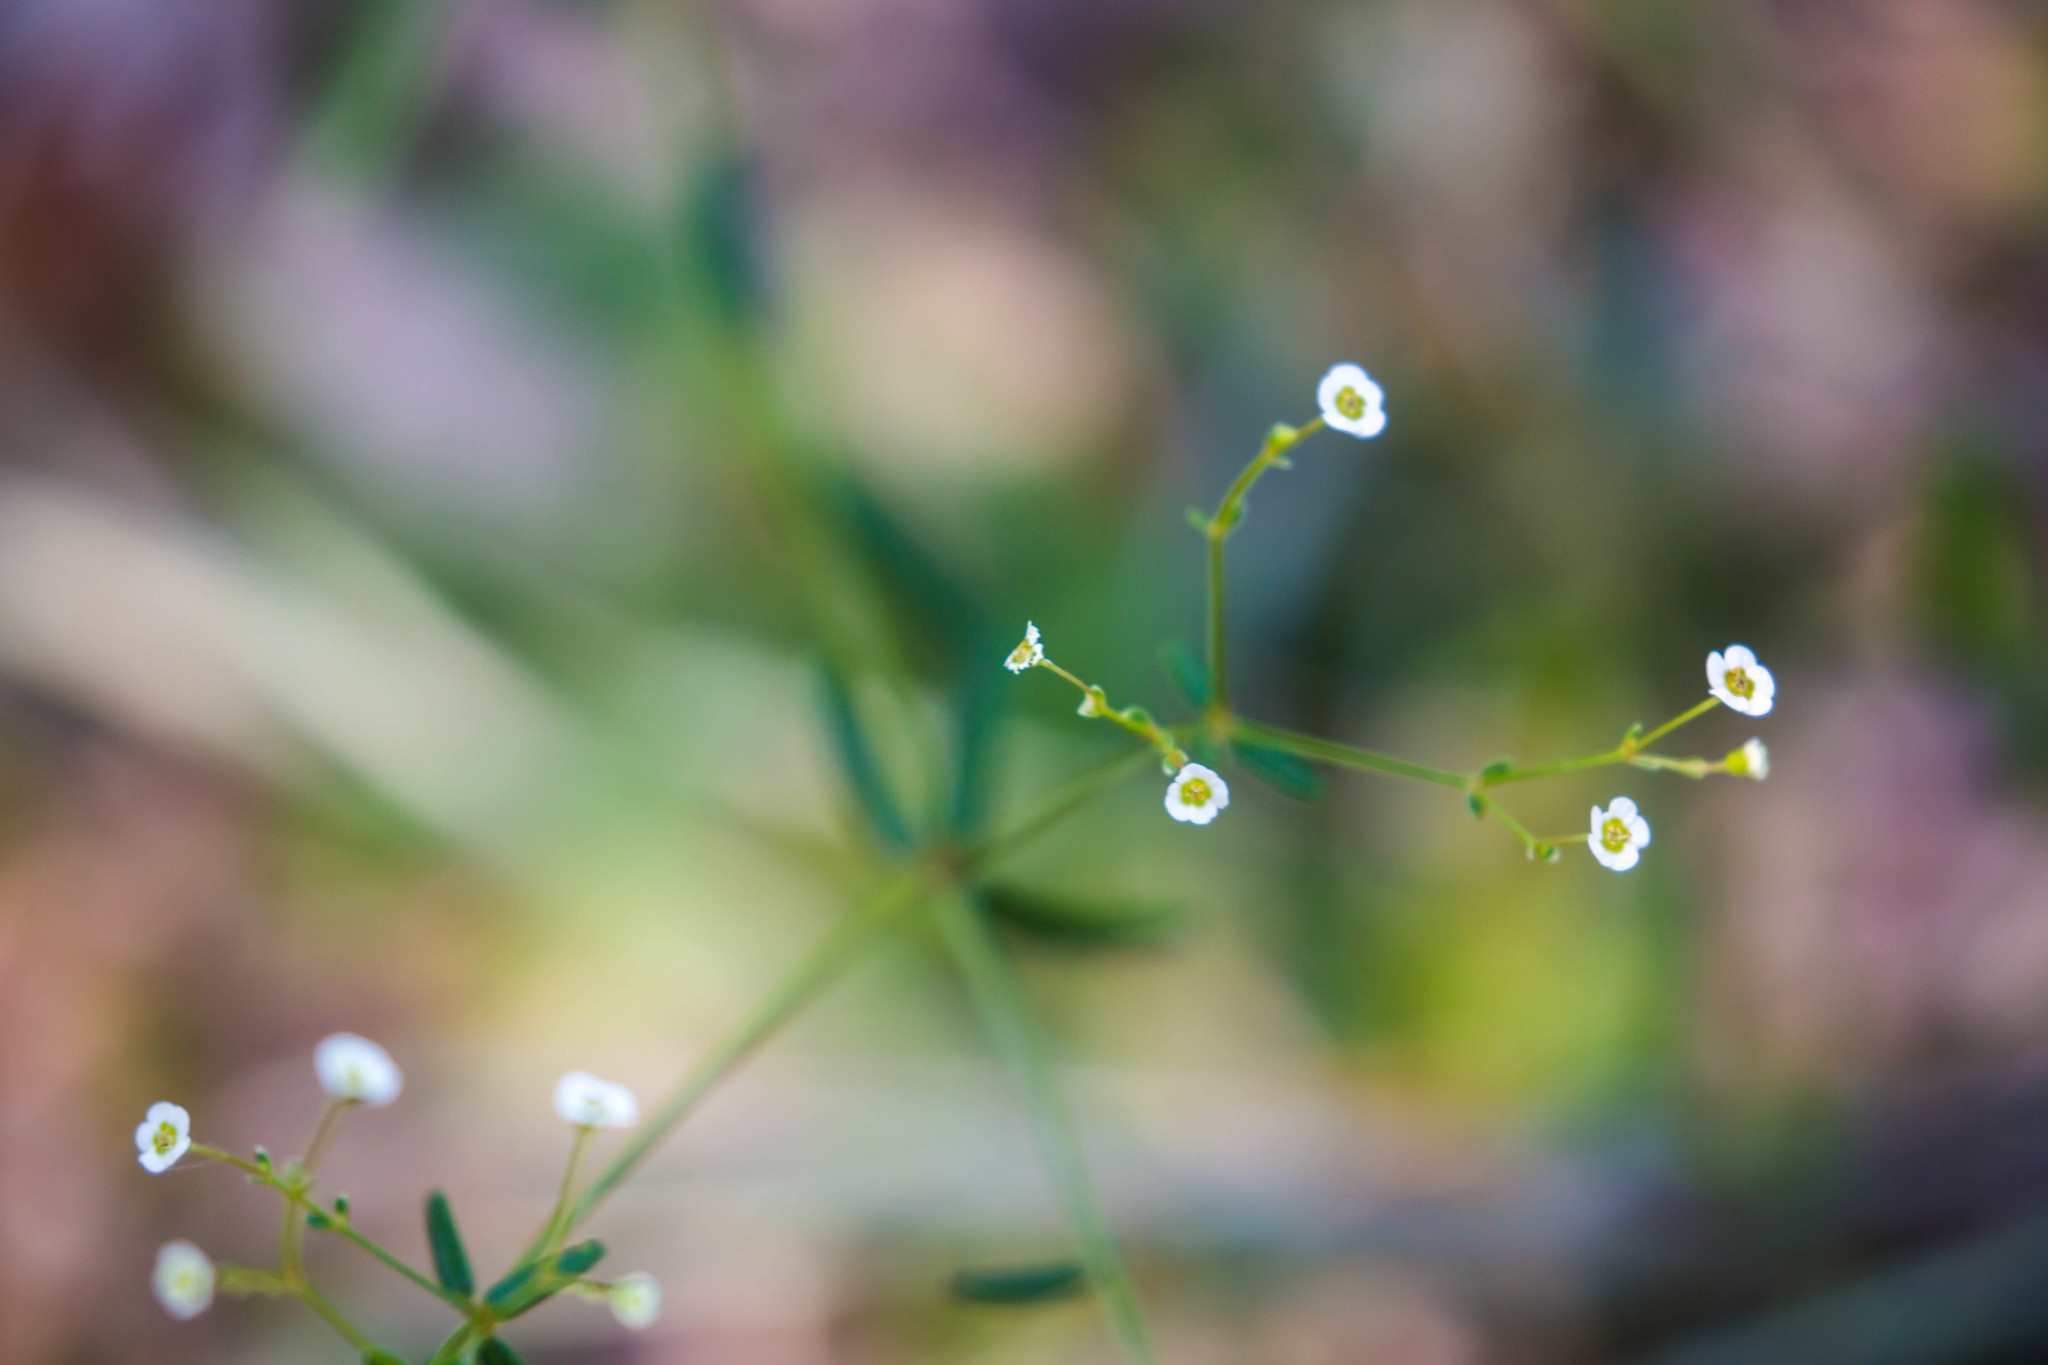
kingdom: Plantae
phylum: Tracheophyta
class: Magnoliopsida
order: Malpighiales
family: Euphorbiaceae
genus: Euphorbia
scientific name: Euphorbia discoidalis
